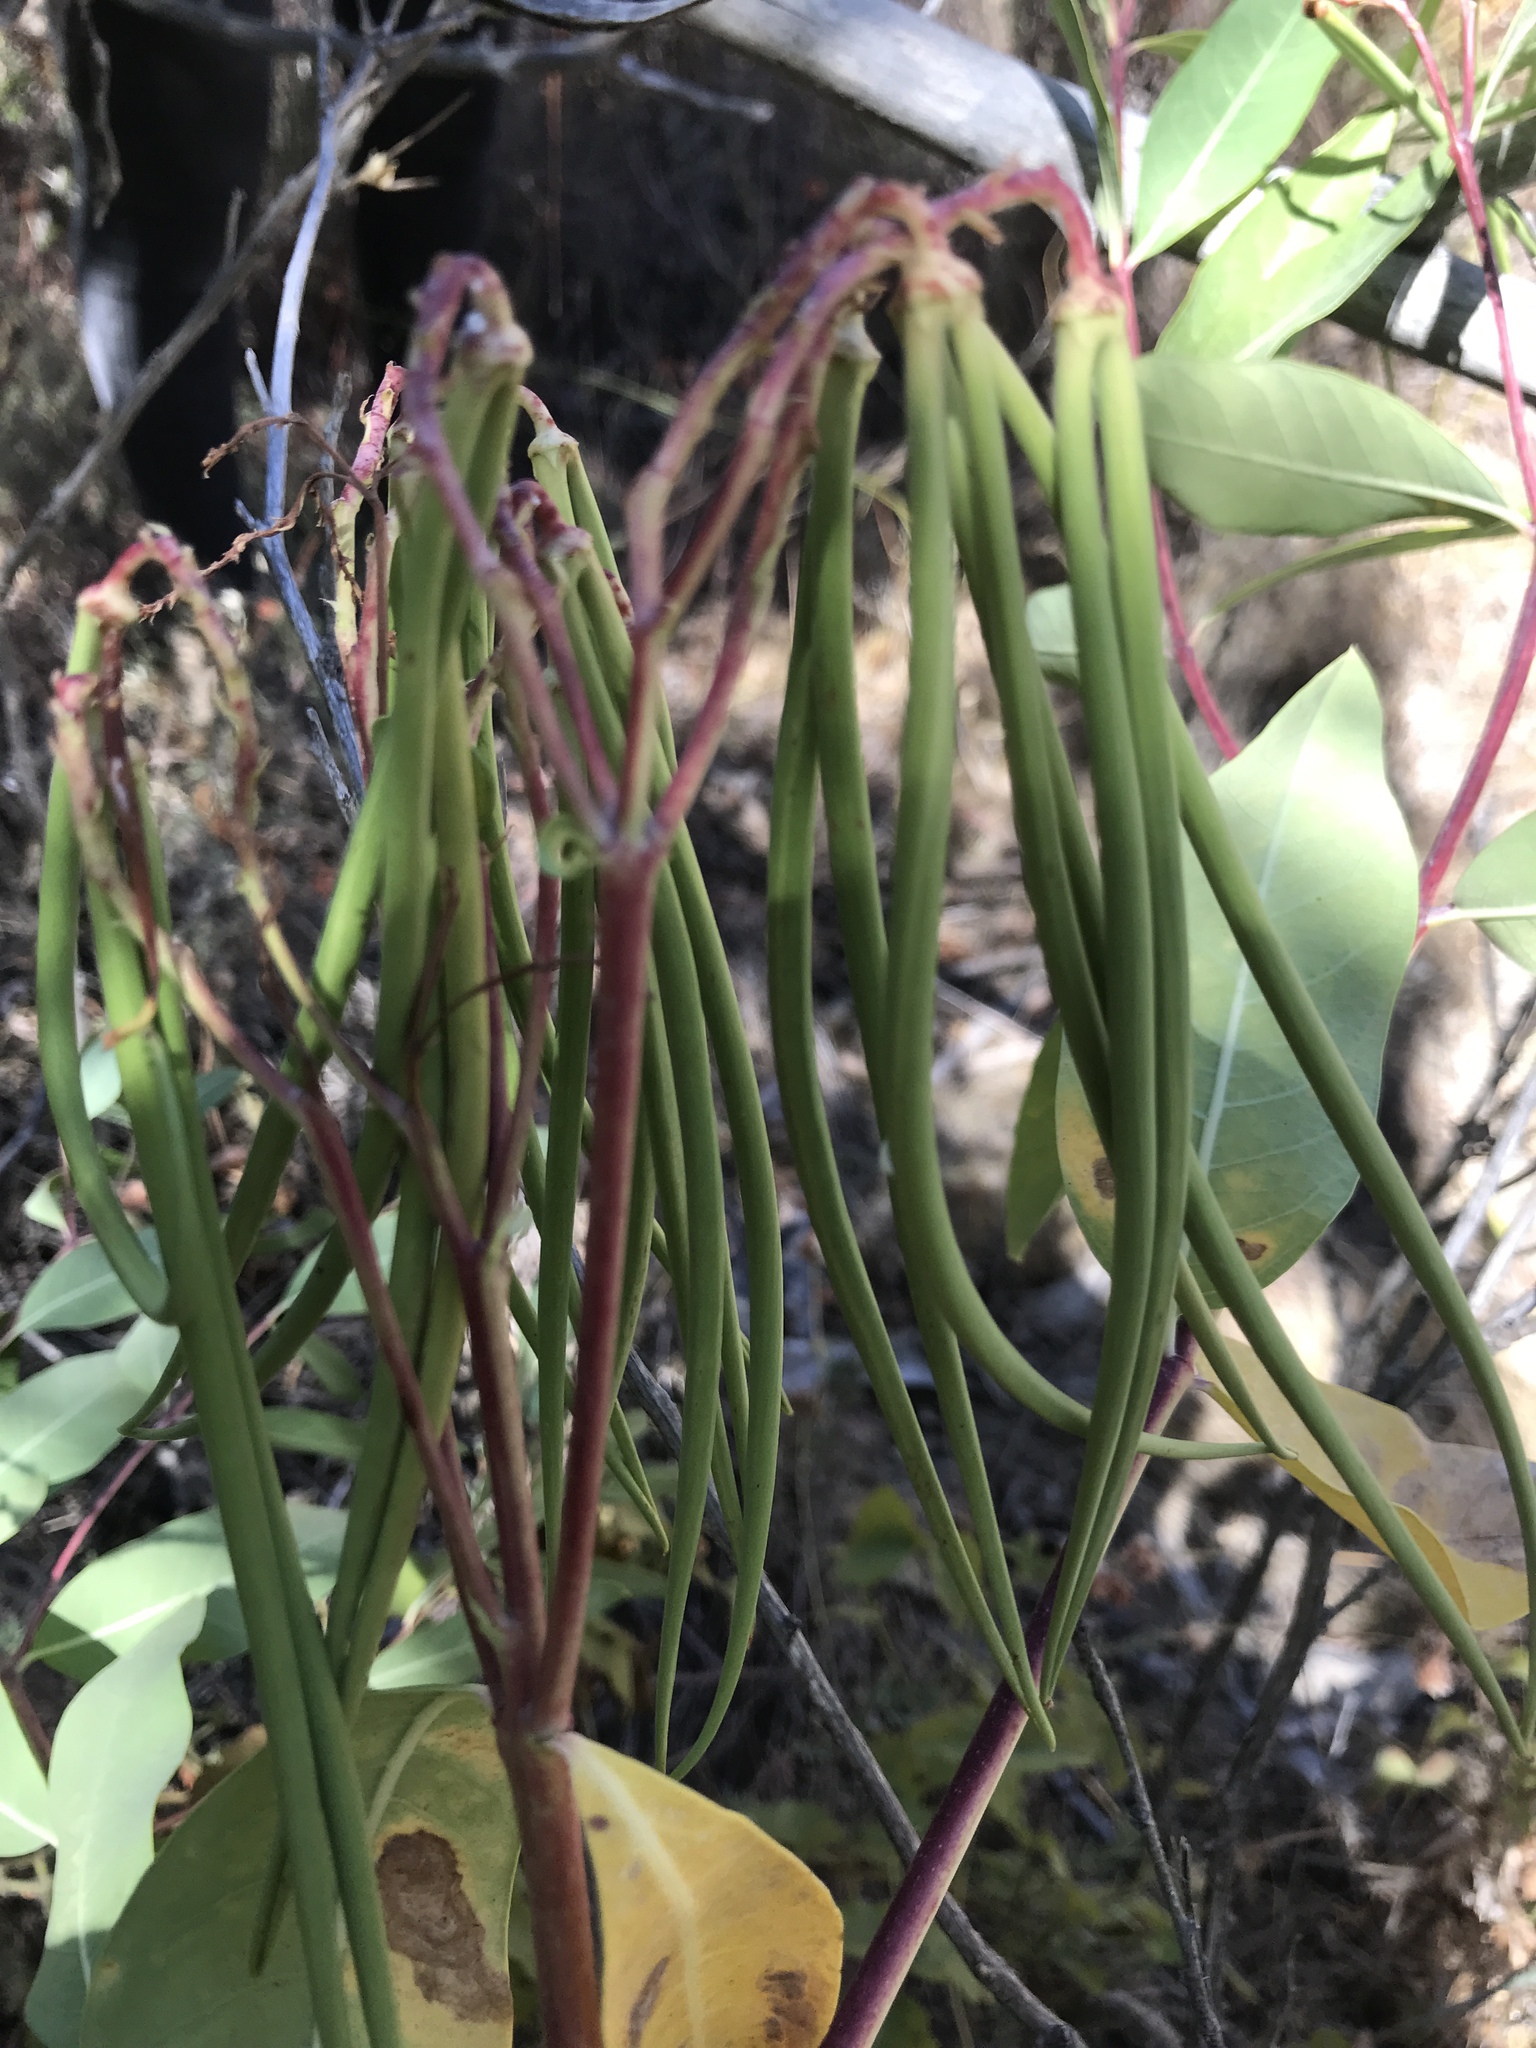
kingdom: Plantae
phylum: Tracheophyta
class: Magnoliopsida
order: Gentianales
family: Apocynaceae
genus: Apocynum
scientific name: Apocynum cannabinum
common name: Hemp dogbane
